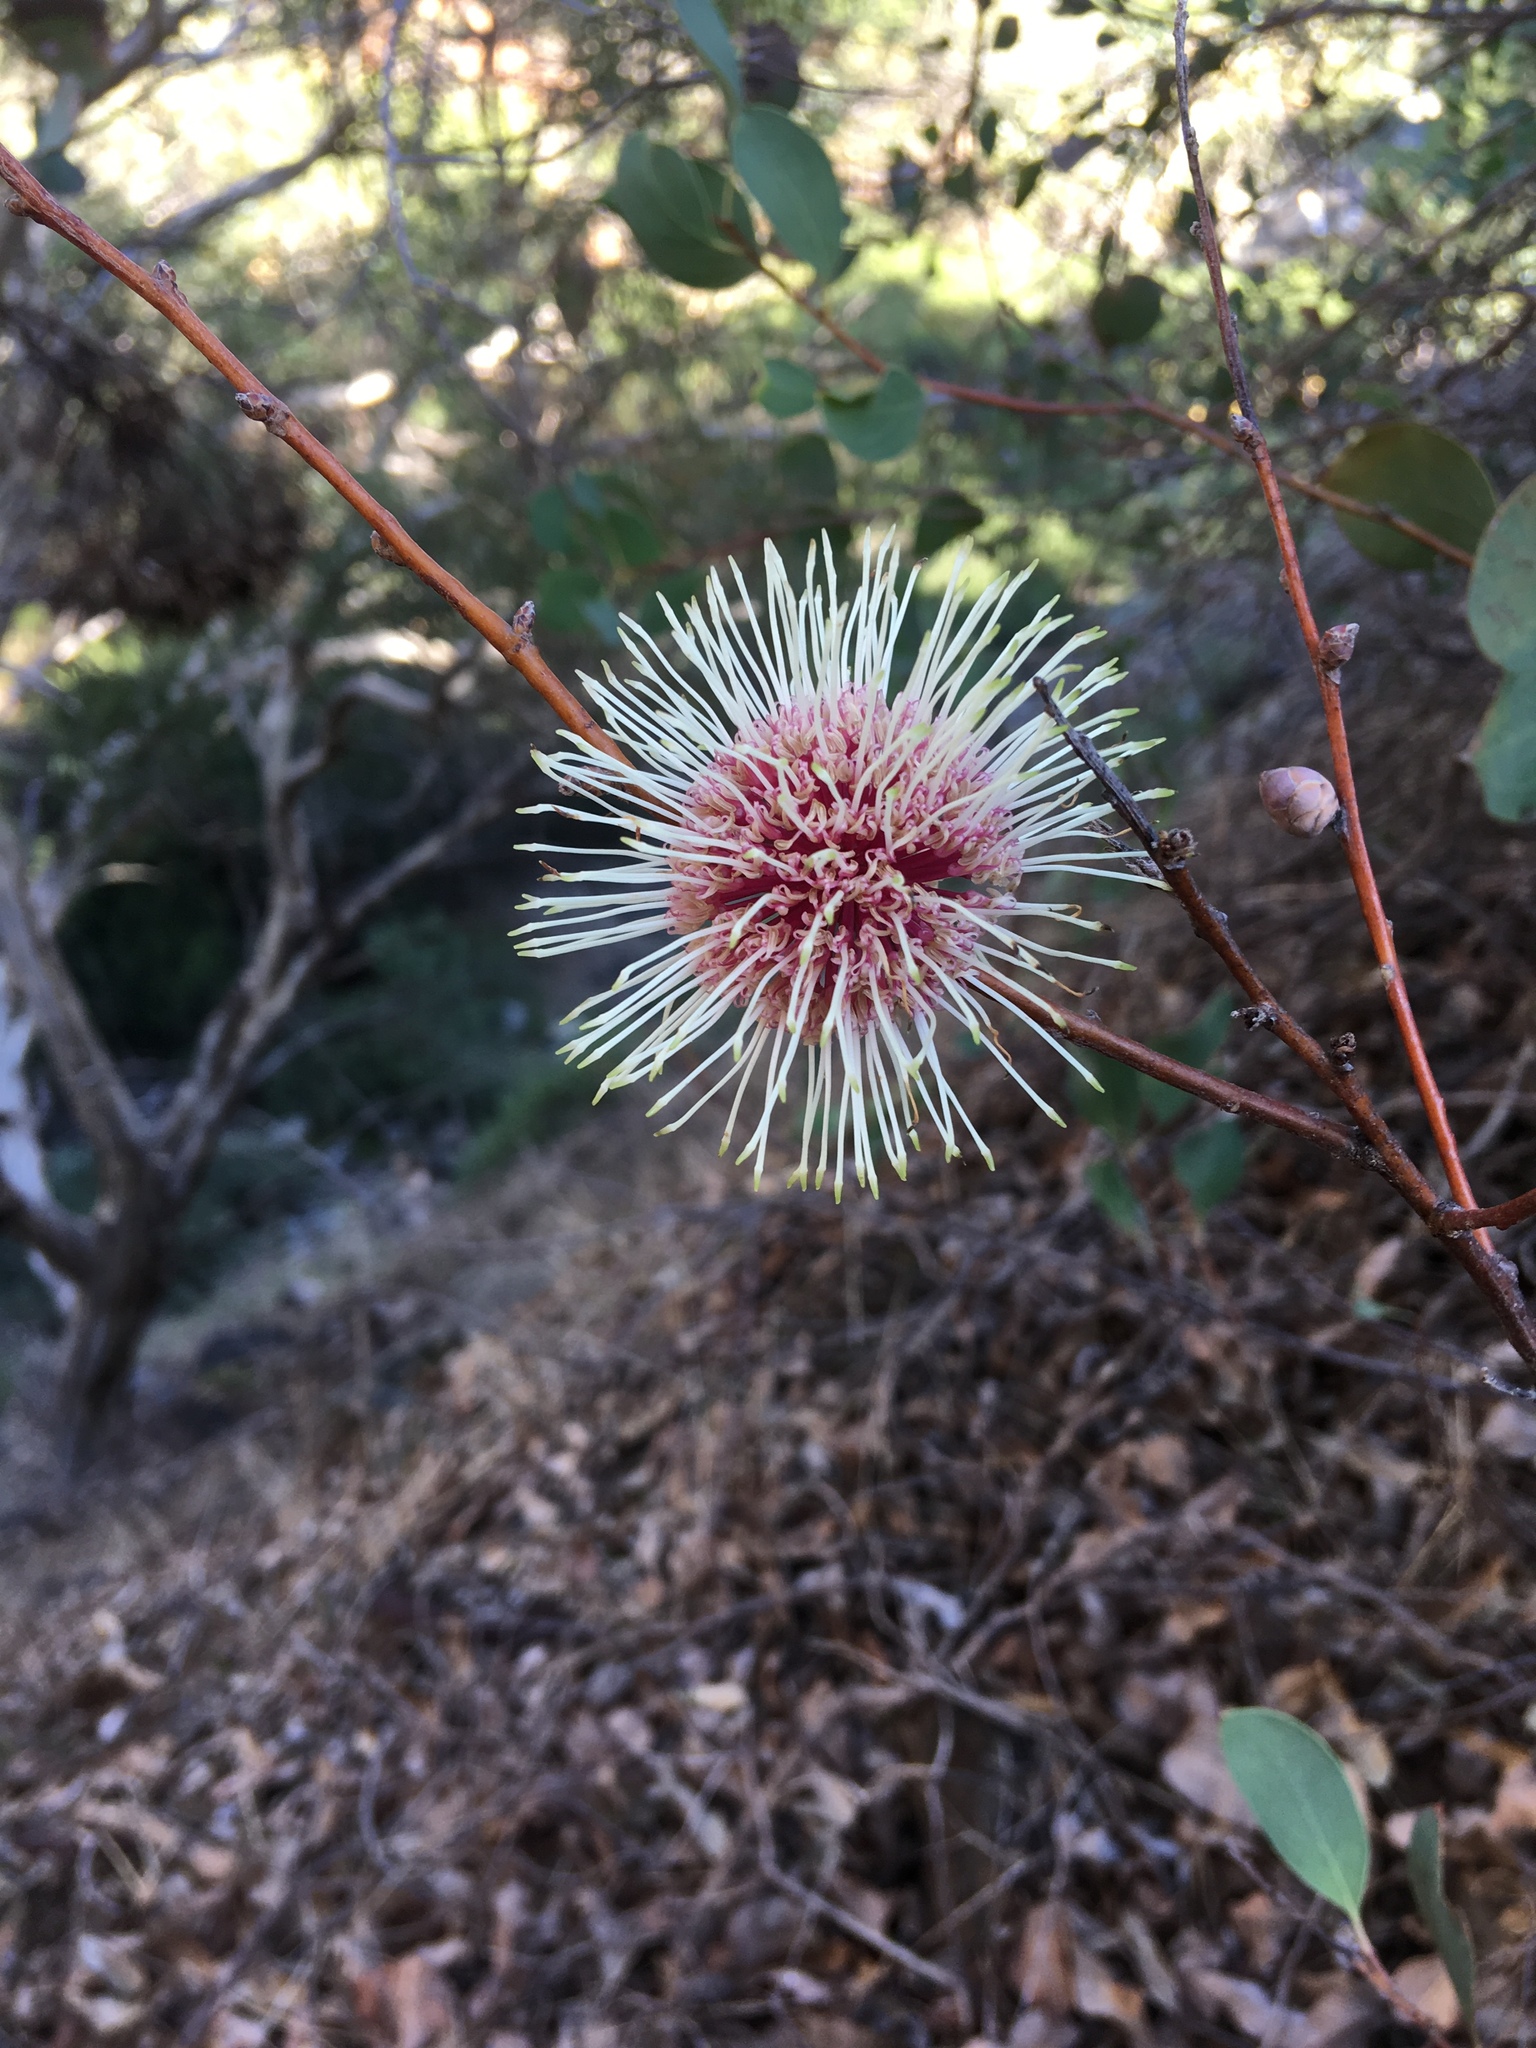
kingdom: Plantae
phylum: Tracheophyta
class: Magnoliopsida
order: Proteales
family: Proteaceae
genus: Hakea
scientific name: Hakea laurina
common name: Cushion hakea
